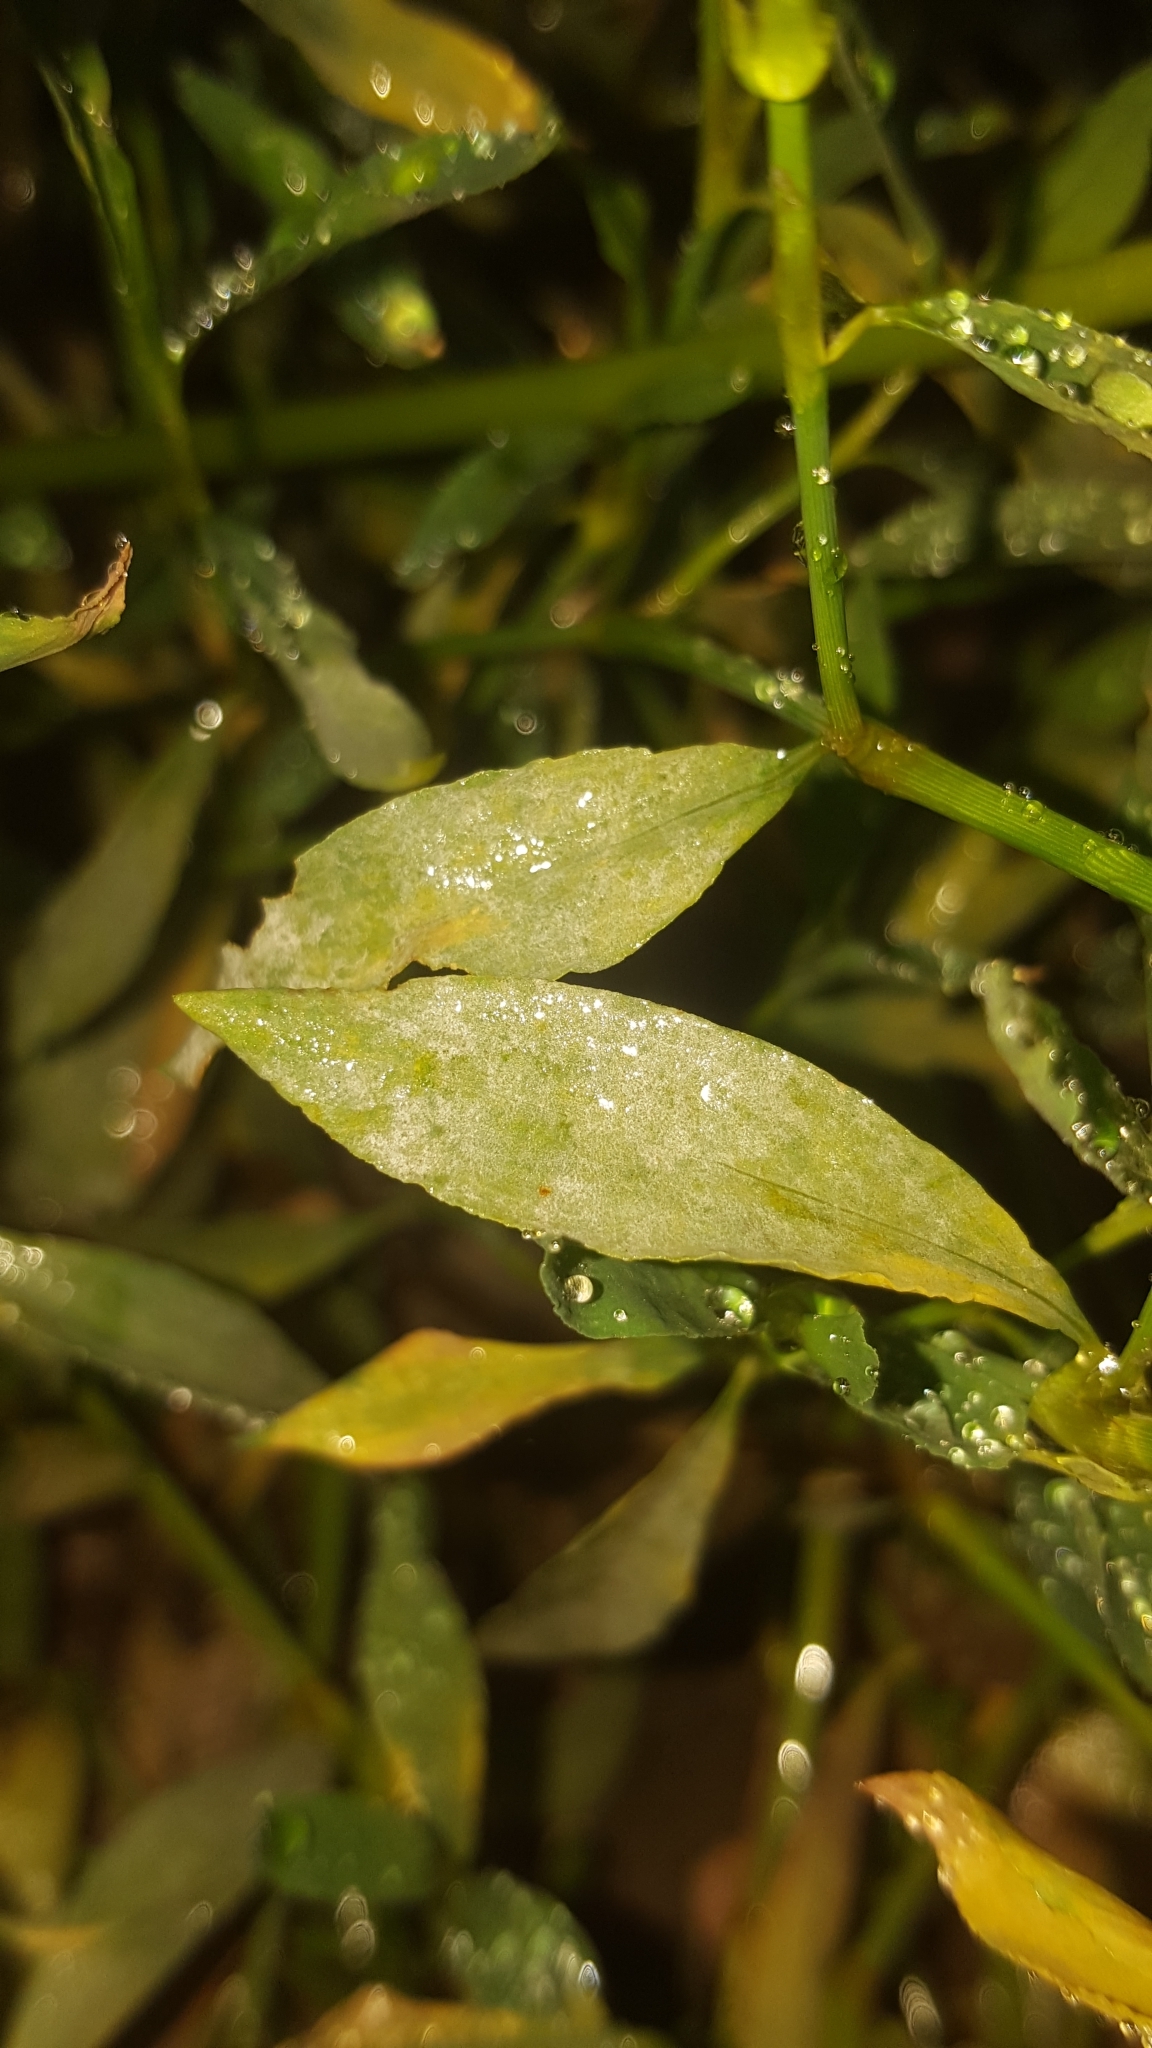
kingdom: Fungi
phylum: Ascomycota
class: Leotiomycetes
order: Helotiales
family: Erysiphaceae
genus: Erysiphe
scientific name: Erysiphe polygoni
